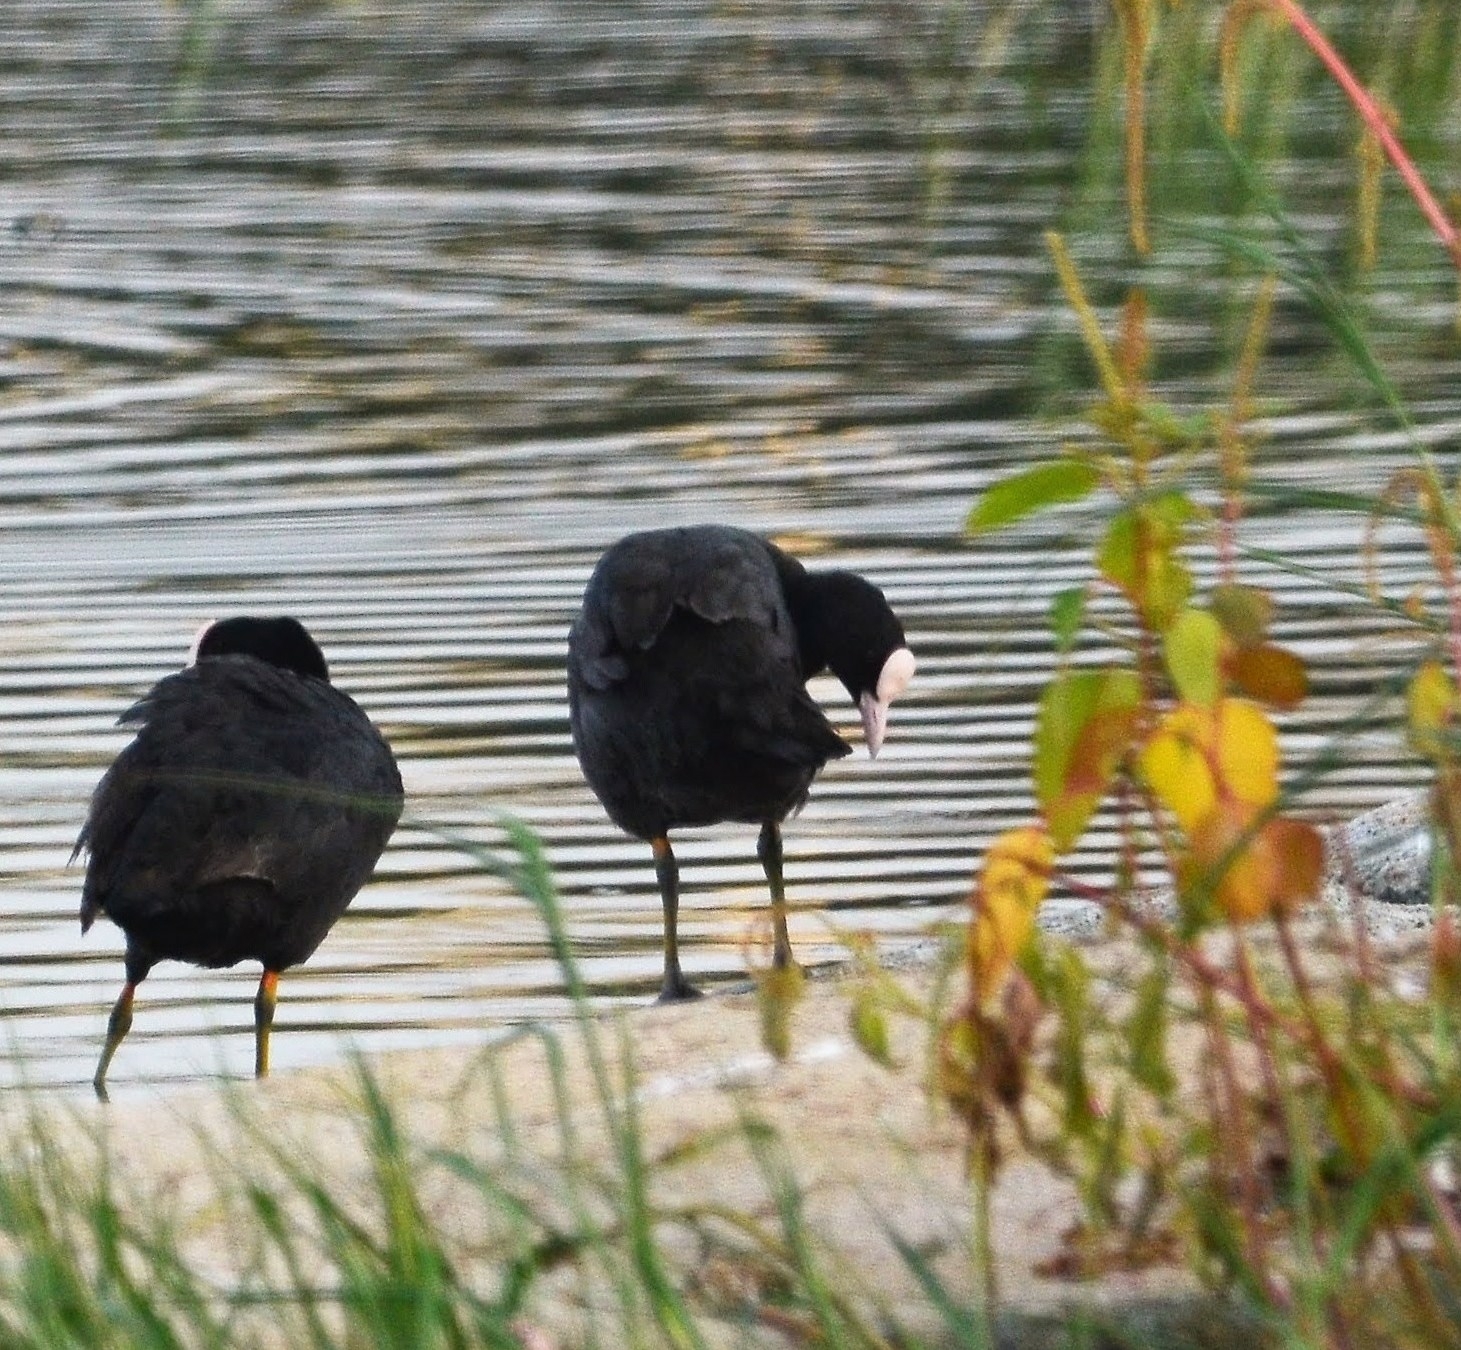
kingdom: Animalia
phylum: Chordata
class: Aves
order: Gruiformes
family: Rallidae
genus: Fulica
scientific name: Fulica atra
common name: Eurasian coot
